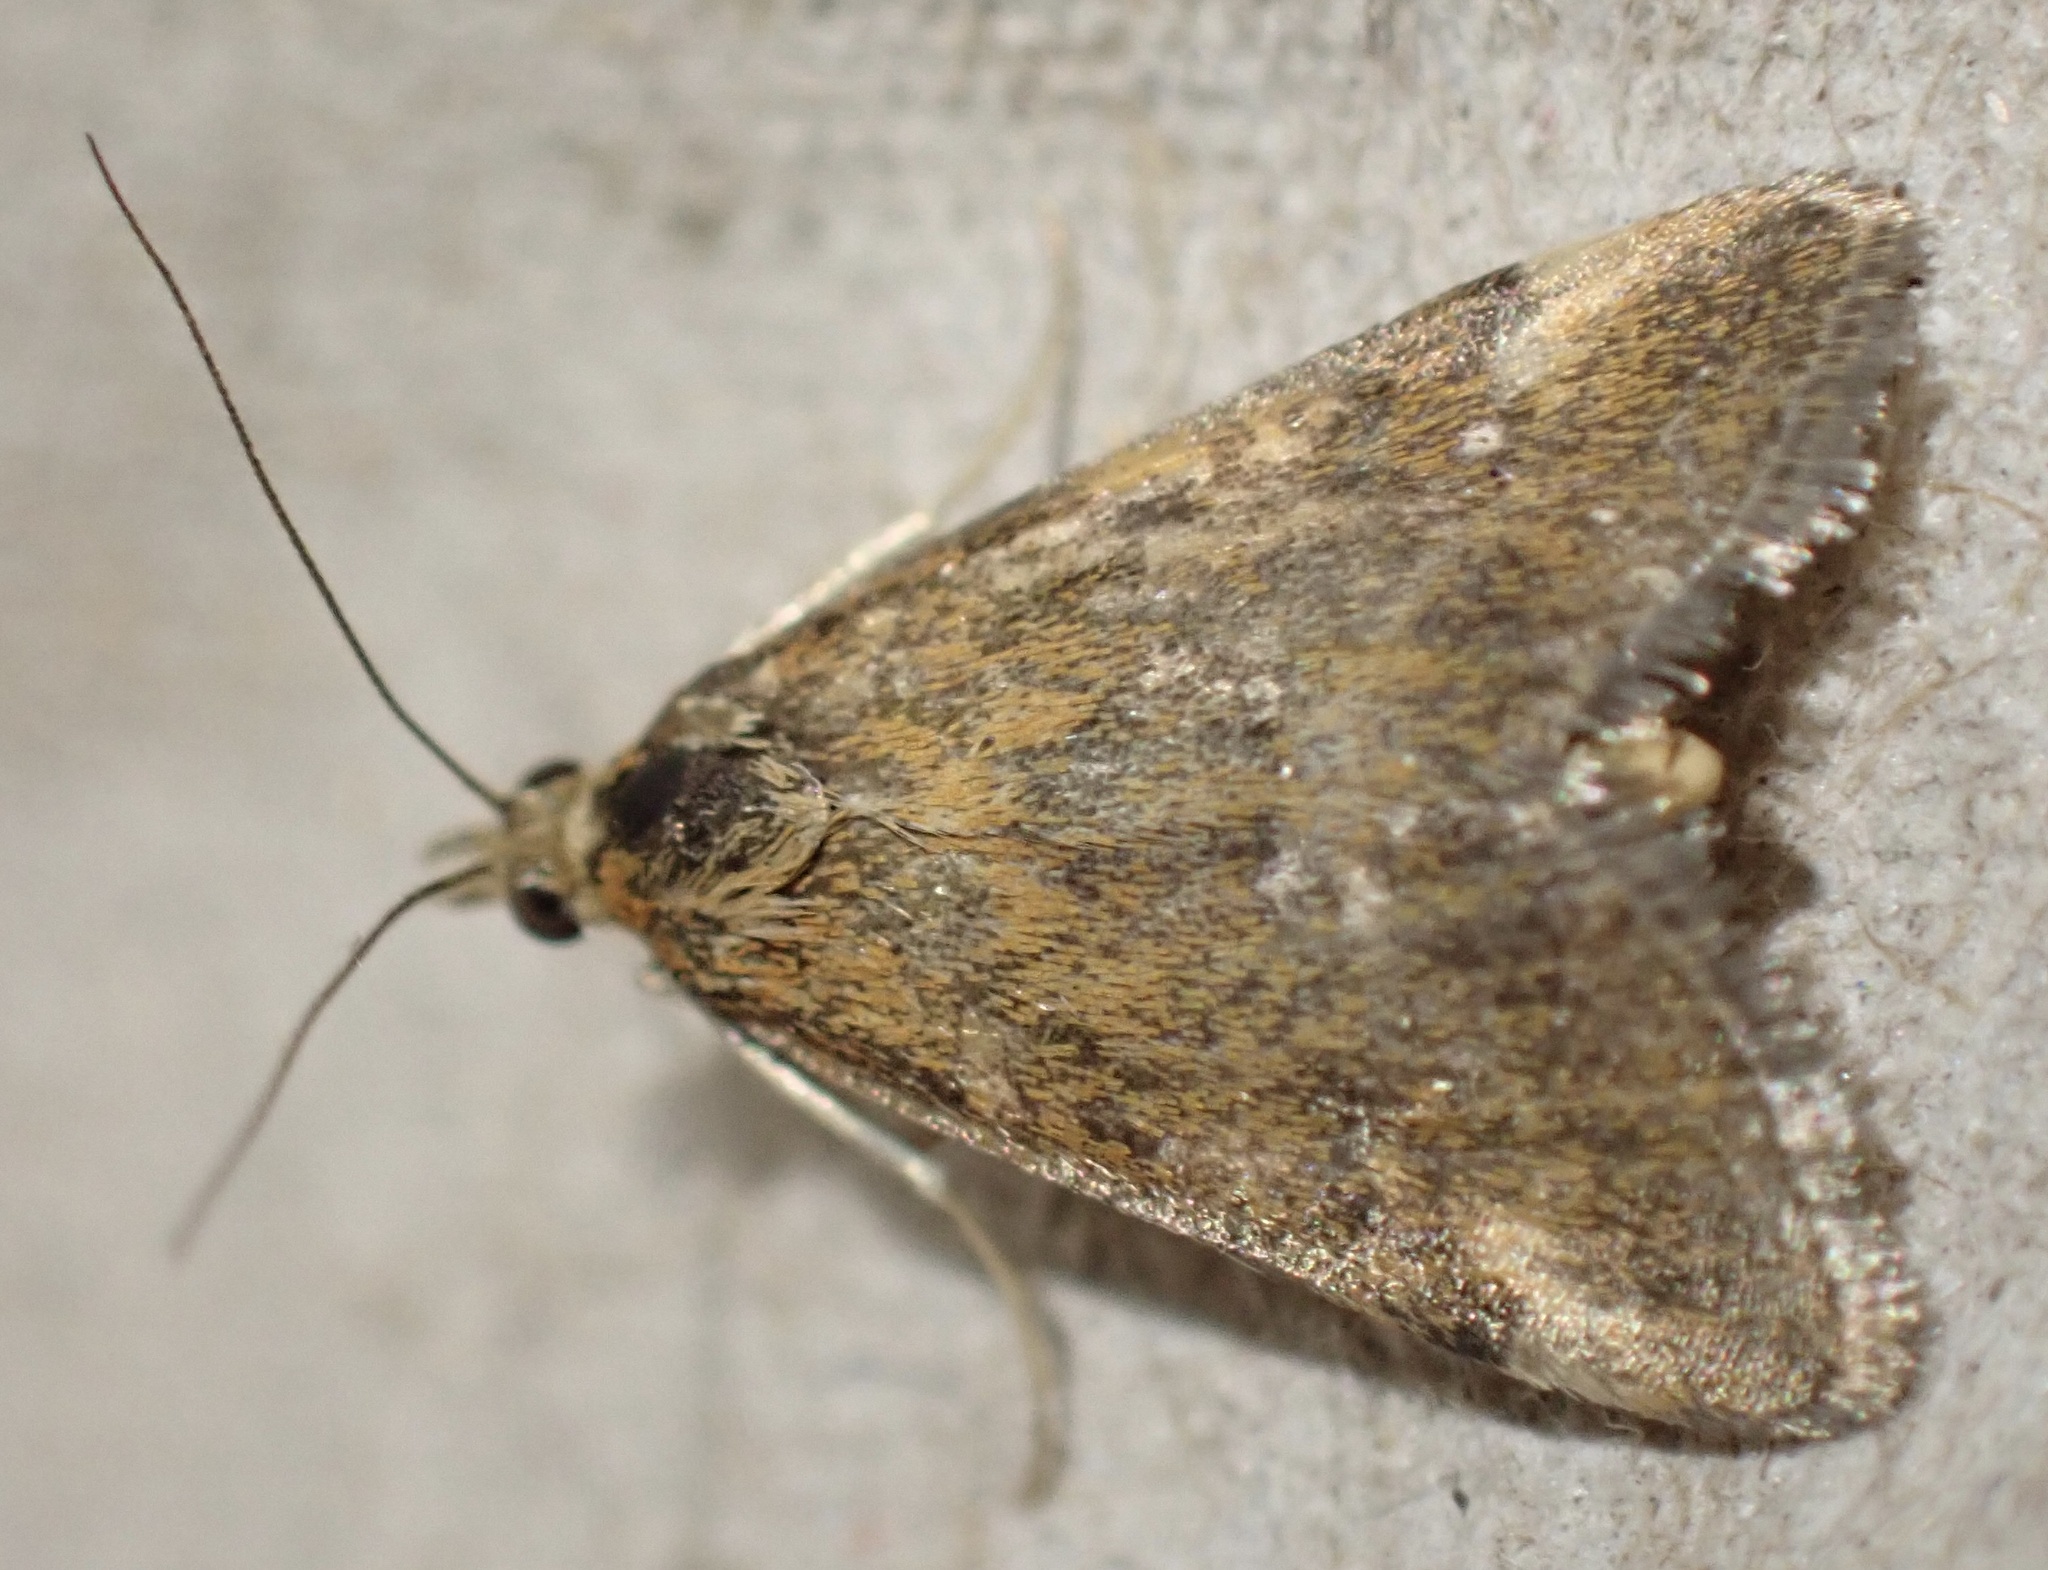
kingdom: Animalia
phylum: Arthropoda
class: Insecta
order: Lepidoptera
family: Crambidae
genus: Pyrausta
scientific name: Pyrausta despicata
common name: Straw-barred pearl
